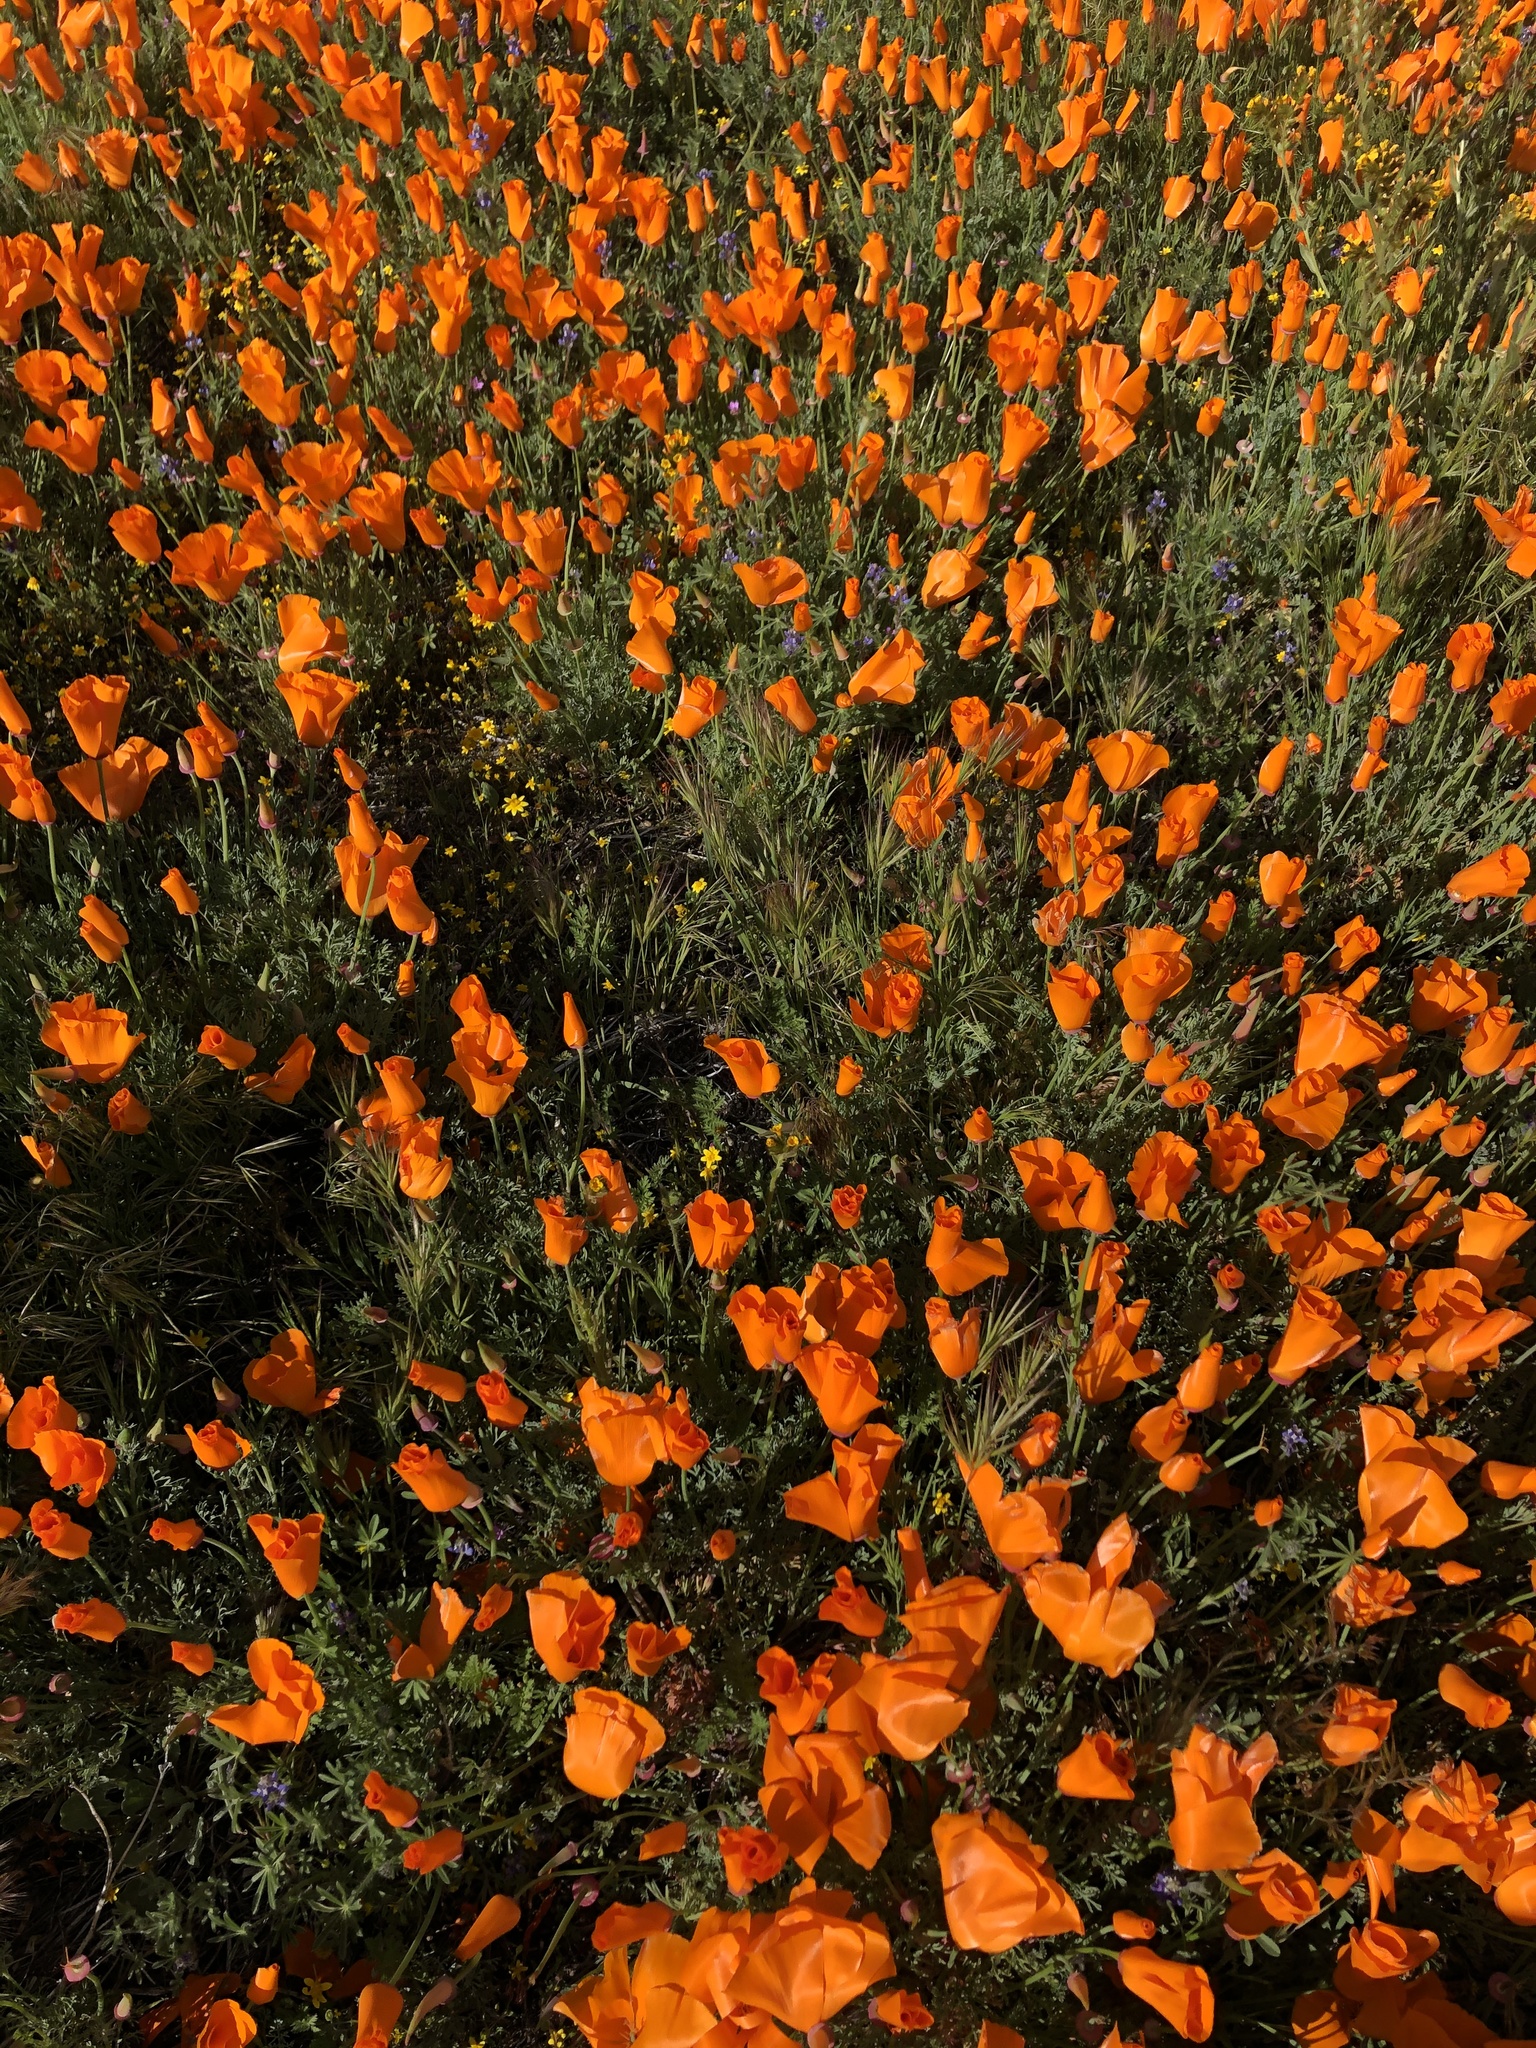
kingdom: Plantae
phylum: Tracheophyta
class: Magnoliopsida
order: Ranunculales
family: Papaveraceae
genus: Eschscholzia
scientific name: Eschscholzia californica
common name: California poppy
